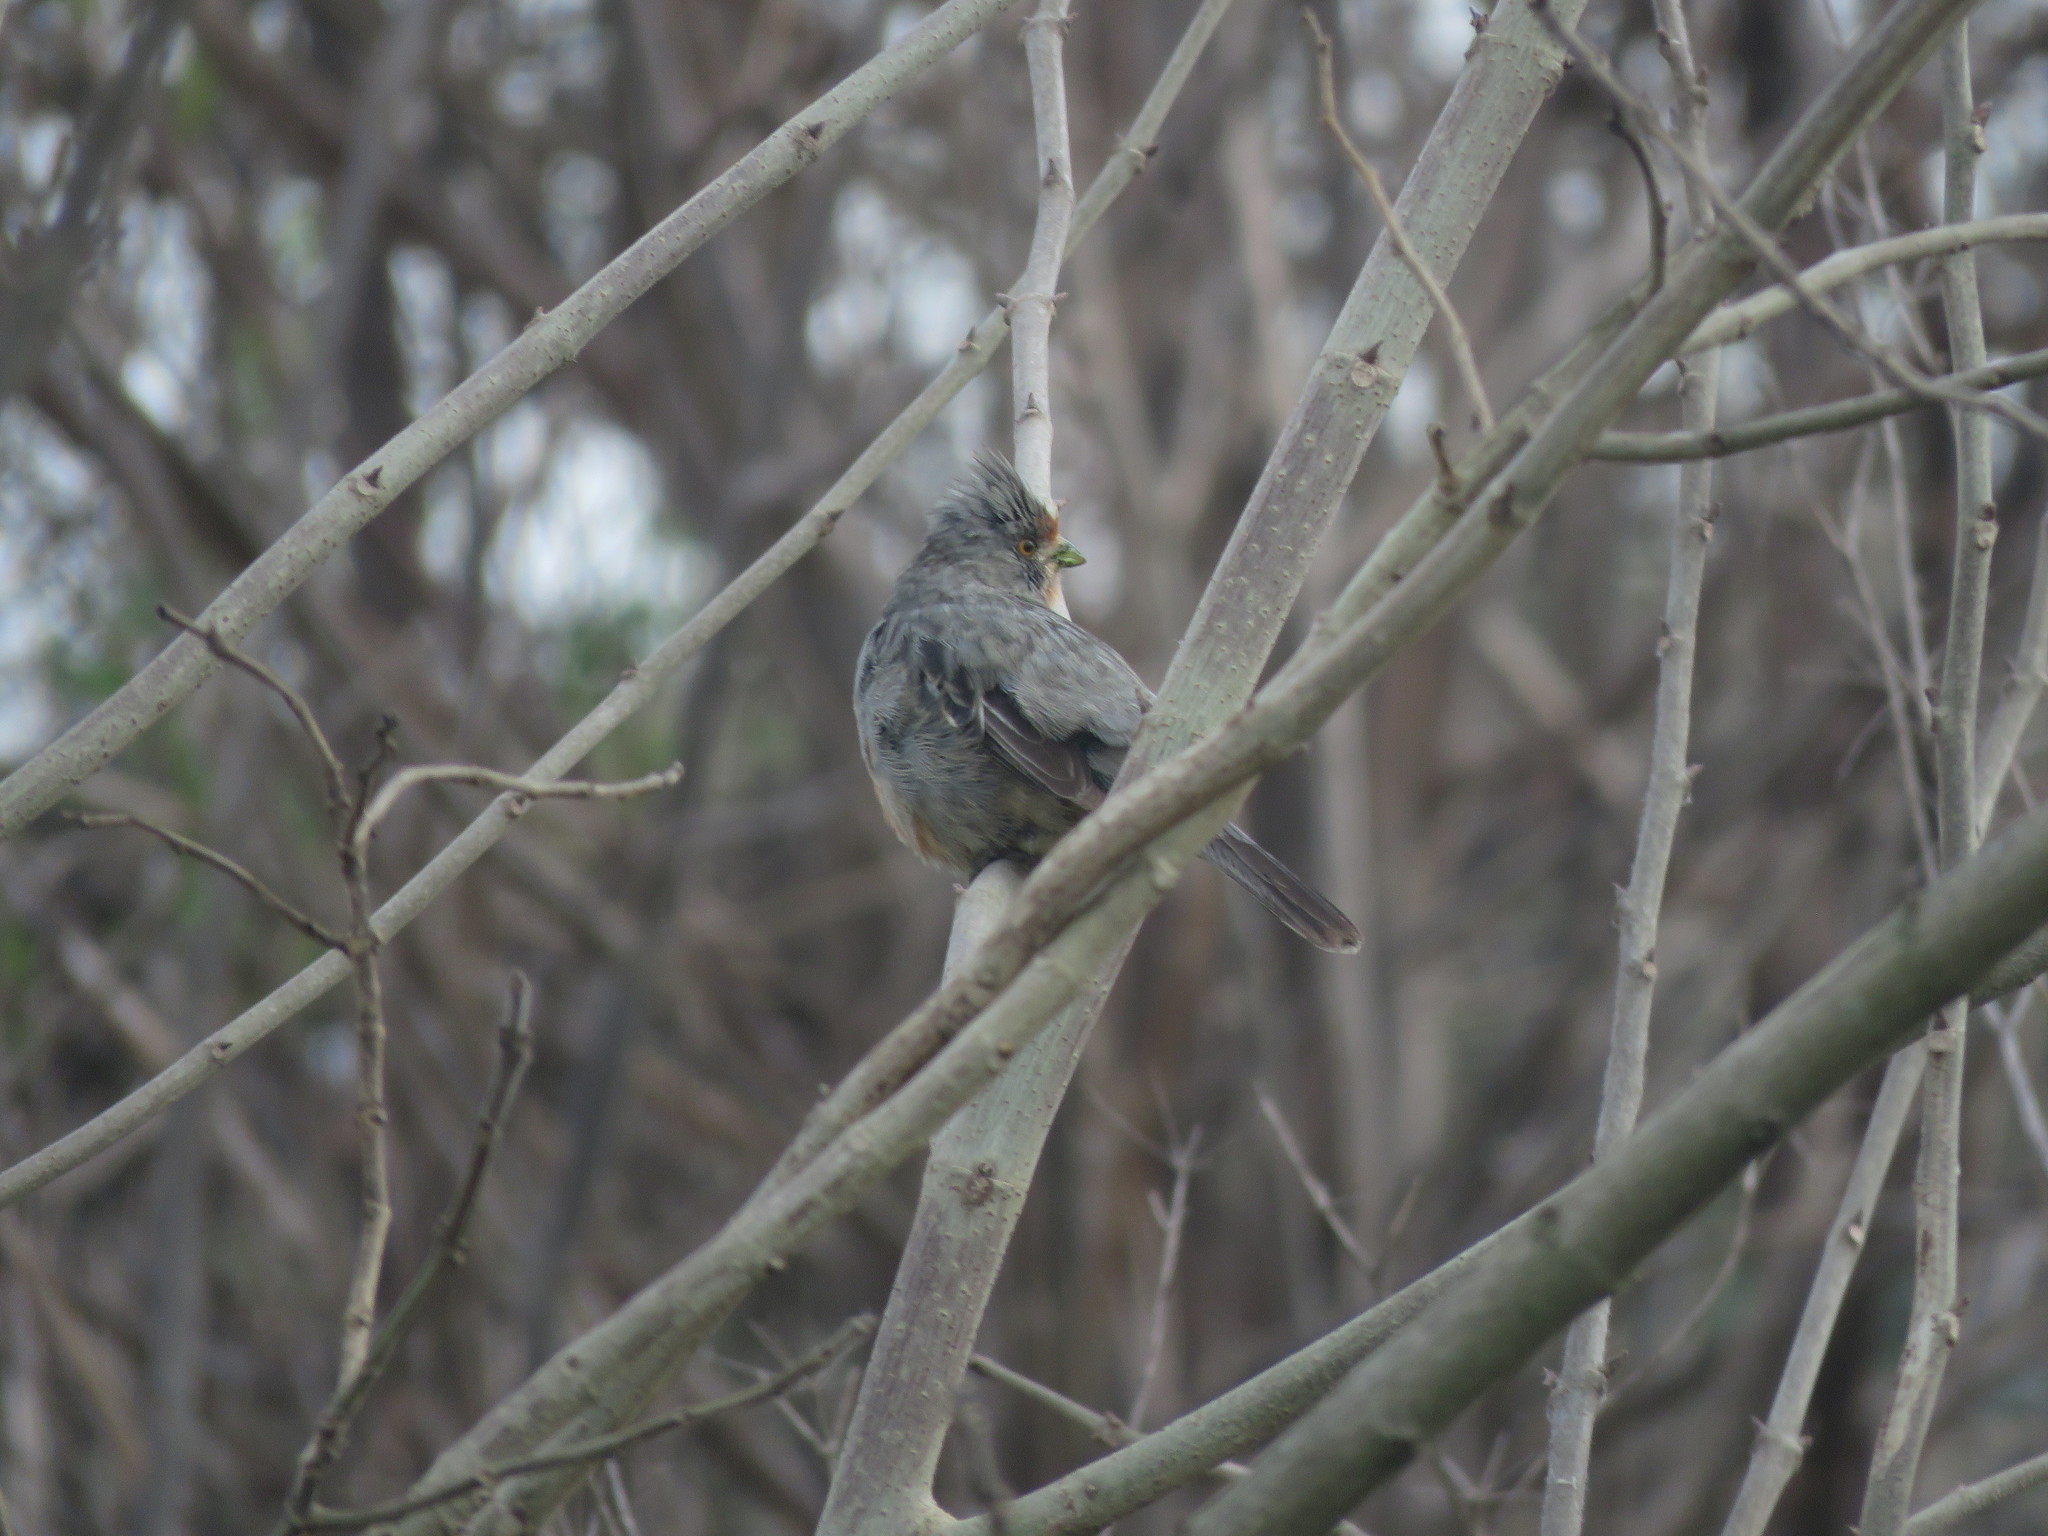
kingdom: Animalia
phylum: Chordata
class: Aves
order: Passeriformes
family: Cotingidae
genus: Phytotoma
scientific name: Phytotoma rutila
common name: White-tipped plantcutter
